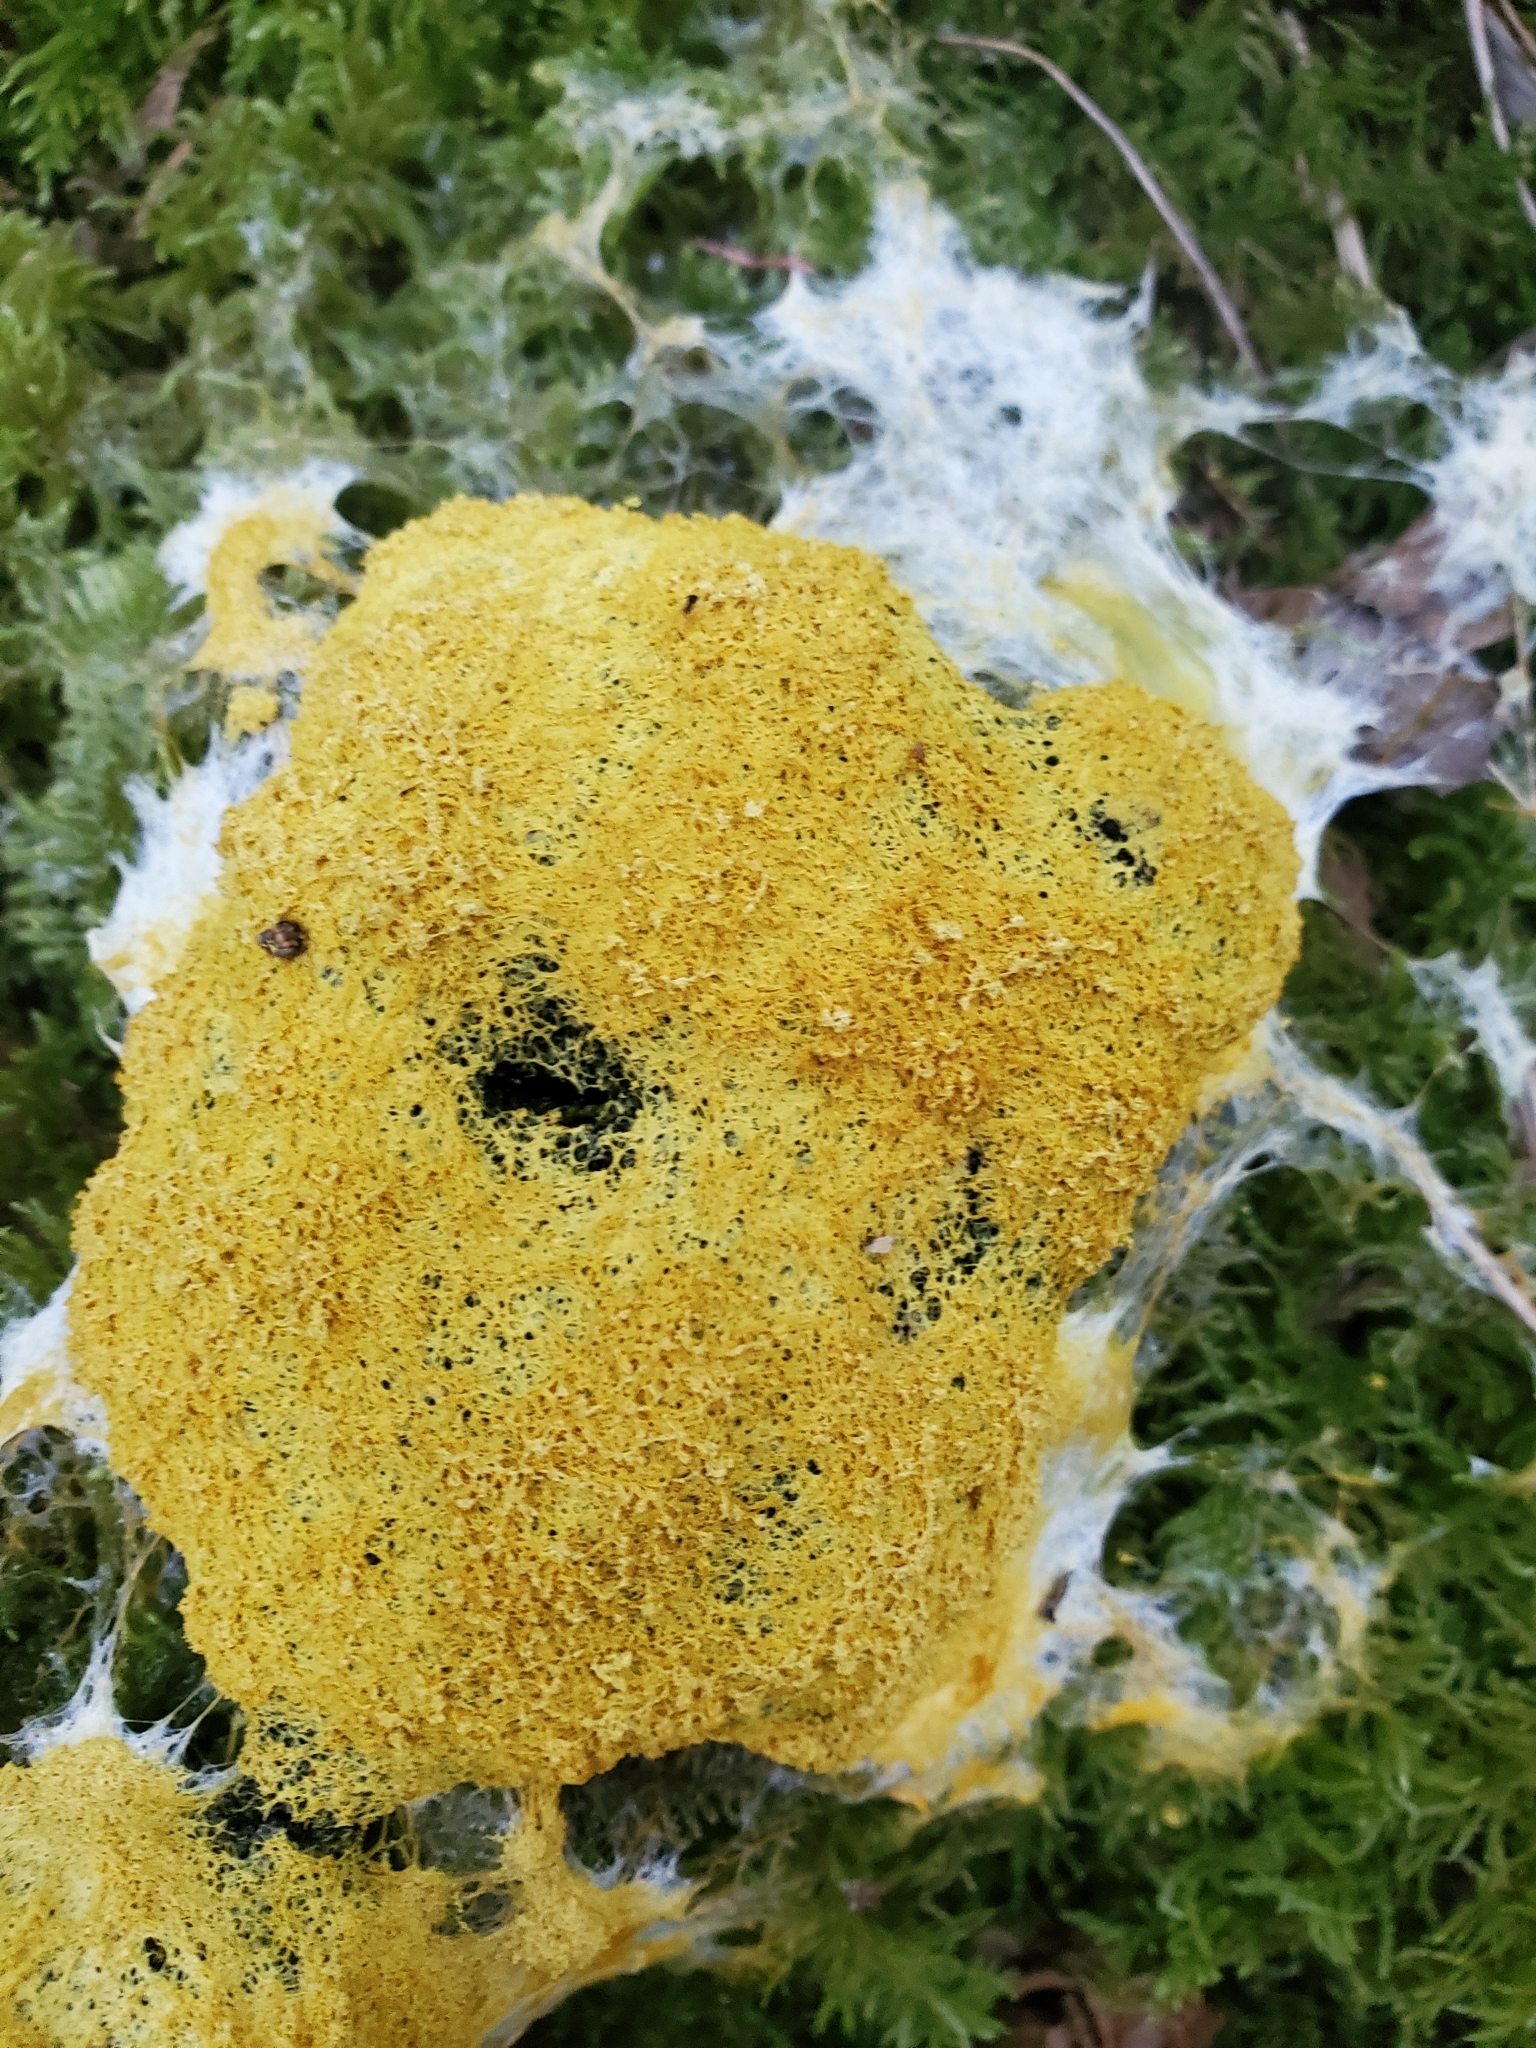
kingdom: Protozoa
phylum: Mycetozoa
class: Myxomycetes
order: Physarales
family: Physaraceae
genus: Fuligo
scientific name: Fuligo septica
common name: Dog vomit slime mold
